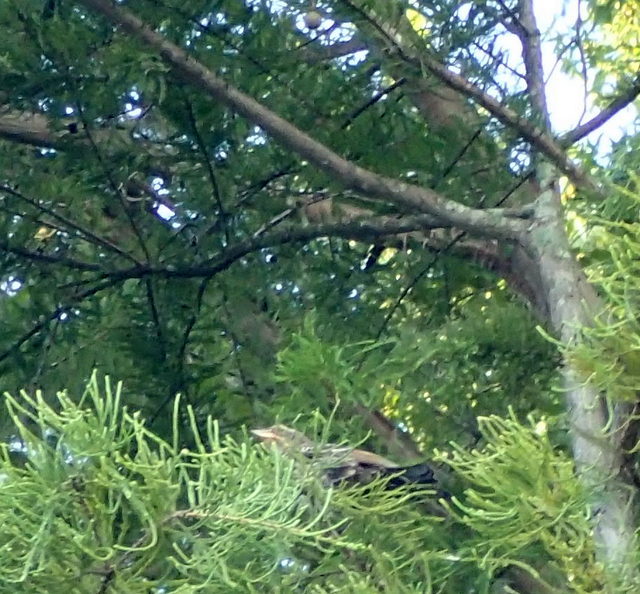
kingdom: Animalia
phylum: Chordata
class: Aves
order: Passeriformes
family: Icteridae
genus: Agelaius
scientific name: Agelaius phoeniceus
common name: Red-winged blackbird
